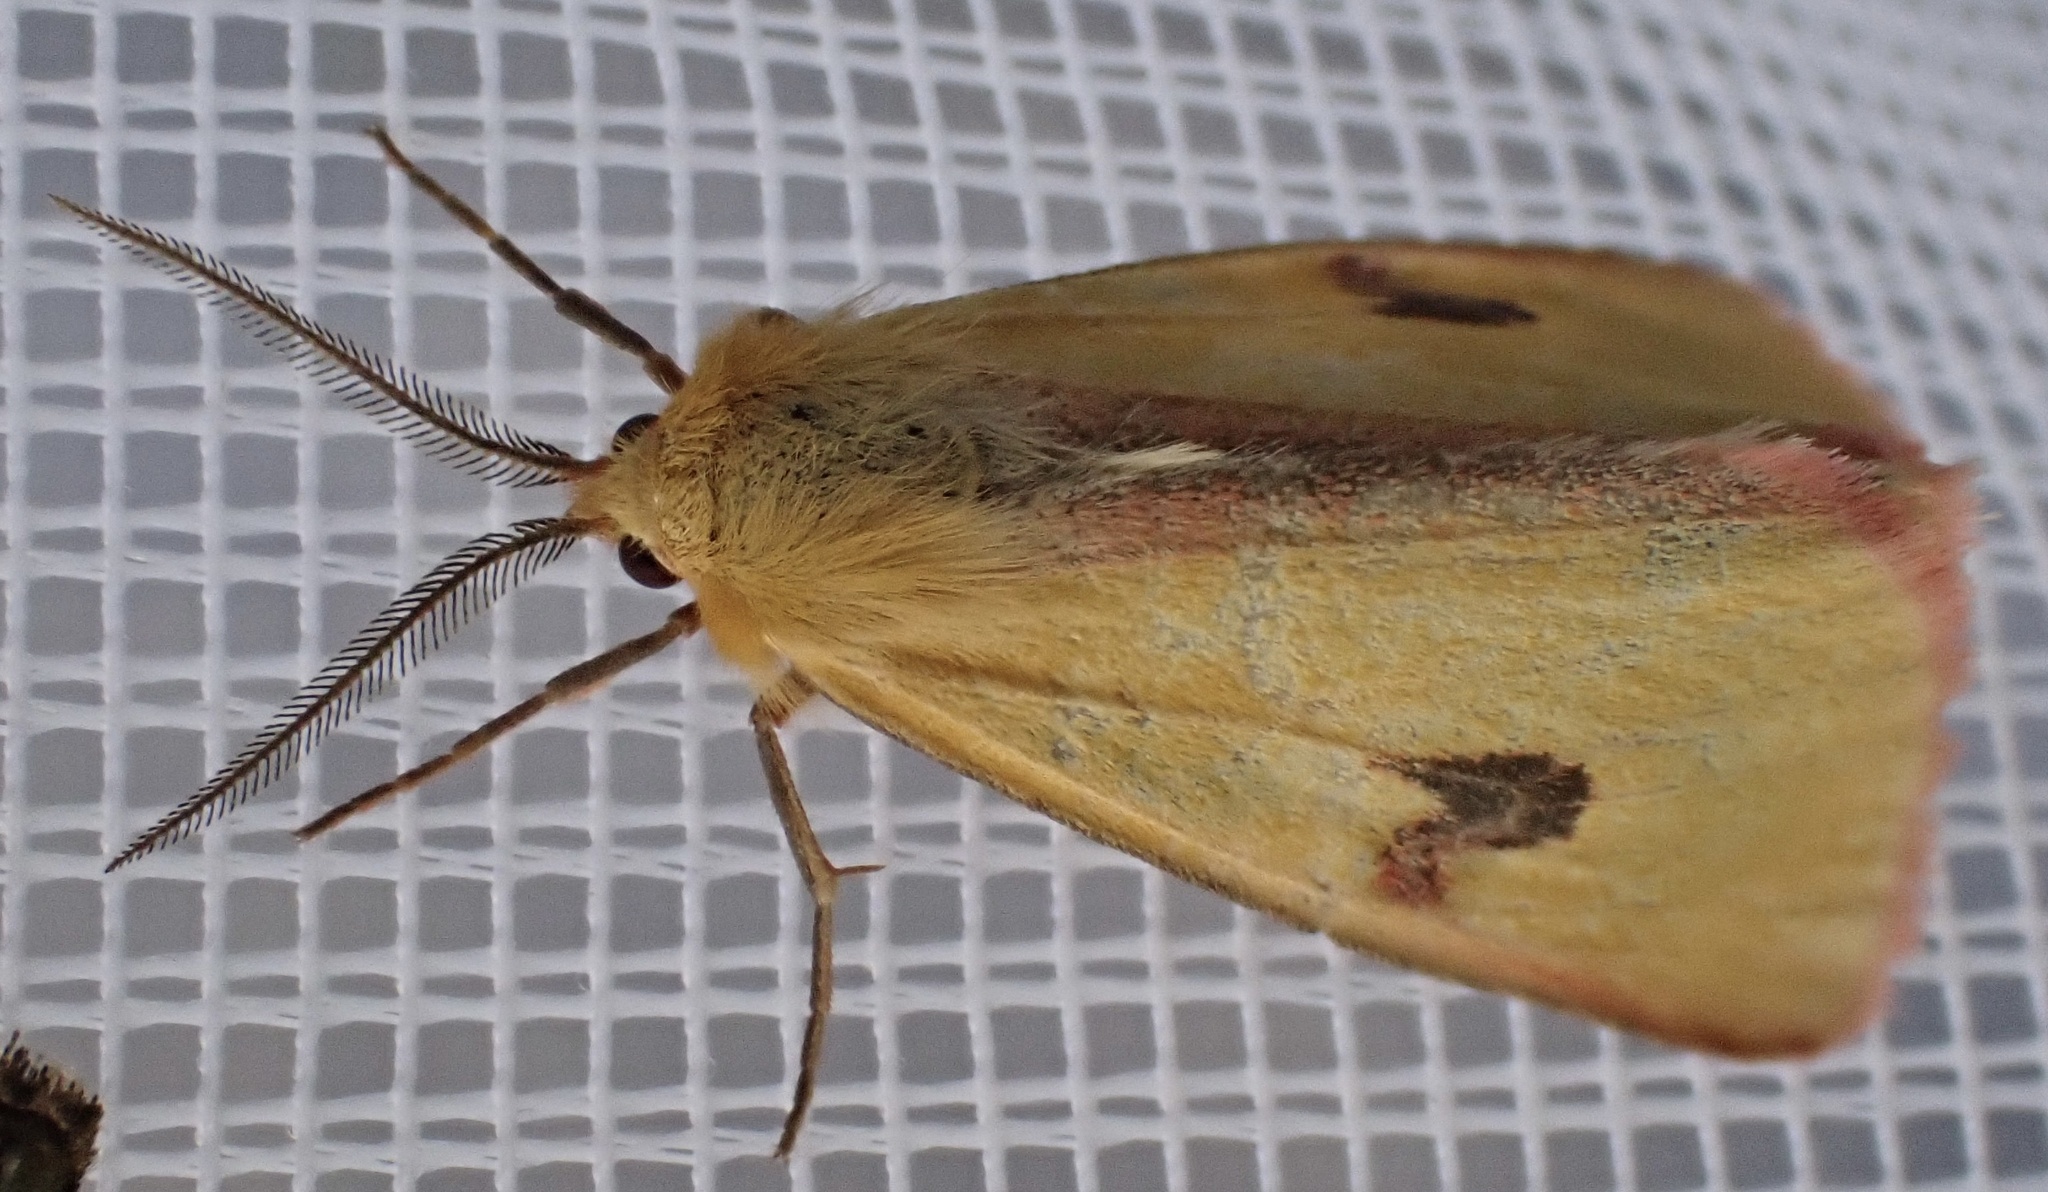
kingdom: Animalia
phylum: Arthropoda
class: Insecta
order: Lepidoptera
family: Erebidae
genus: Diacrisia
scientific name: Diacrisia sannio
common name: Clouded buff
